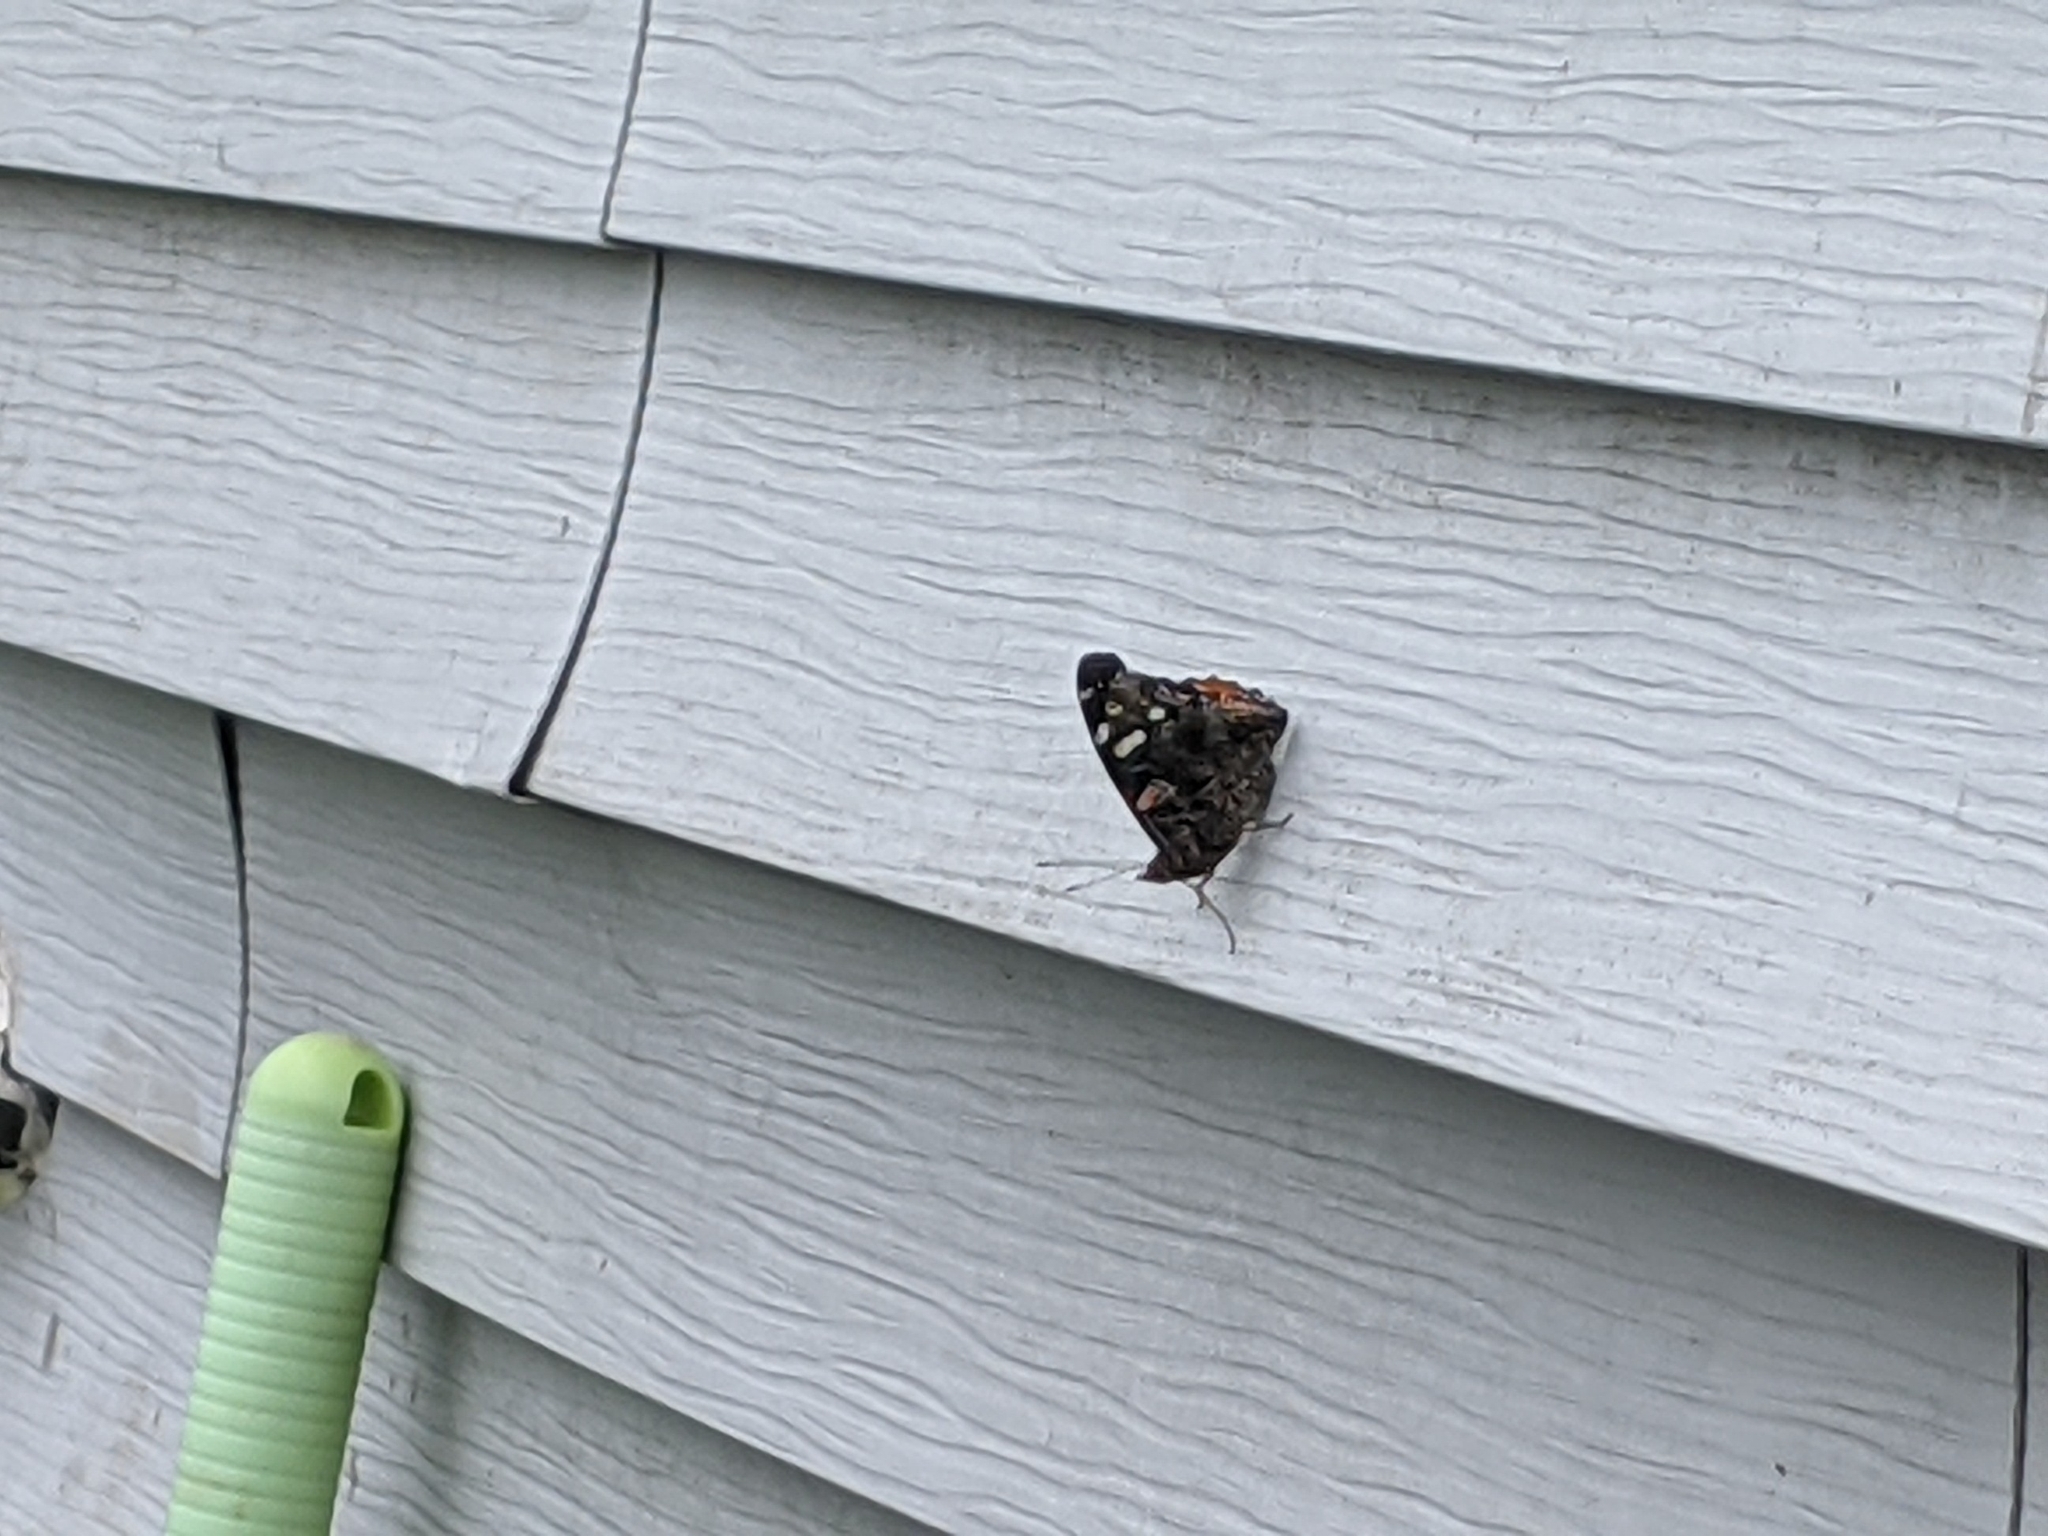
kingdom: Animalia
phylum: Arthropoda
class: Insecta
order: Lepidoptera
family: Nymphalidae
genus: Vanessa
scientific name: Vanessa atalanta
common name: Red admiral
